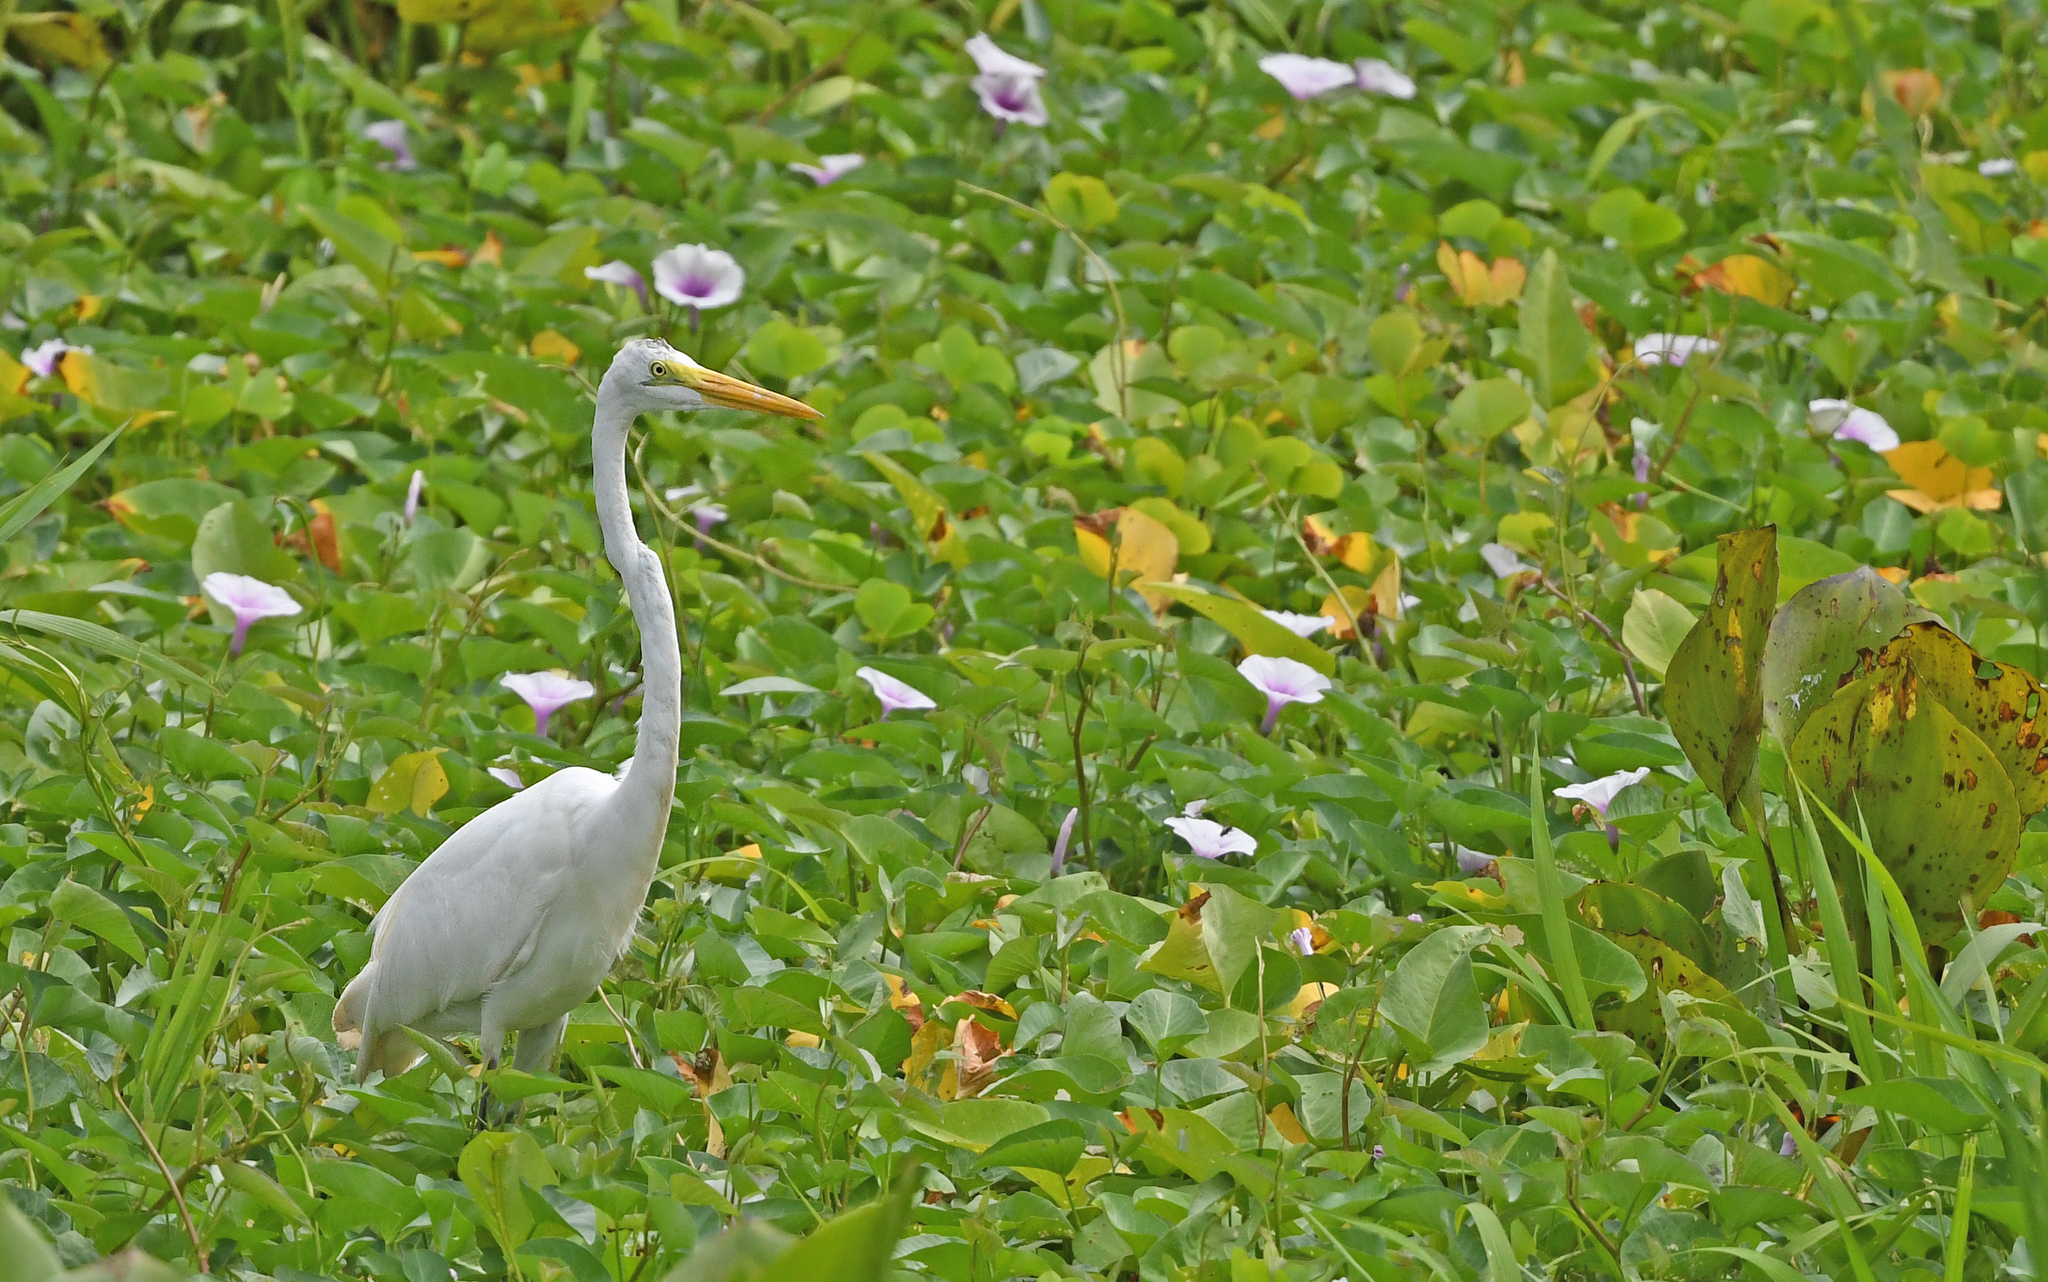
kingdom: Animalia
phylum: Chordata
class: Aves
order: Pelecaniformes
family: Ardeidae
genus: Ardea
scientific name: Ardea alba
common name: Great egret
